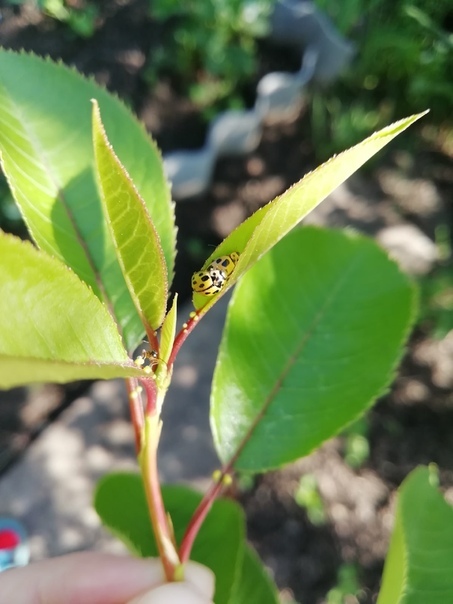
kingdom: Animalia
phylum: Arthropoda
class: Insecta
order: Coleoptera
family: Coccinellidae
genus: Propylaea
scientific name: Propylaea quatuordecimpunctata
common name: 14-spotted ladybird beetle
